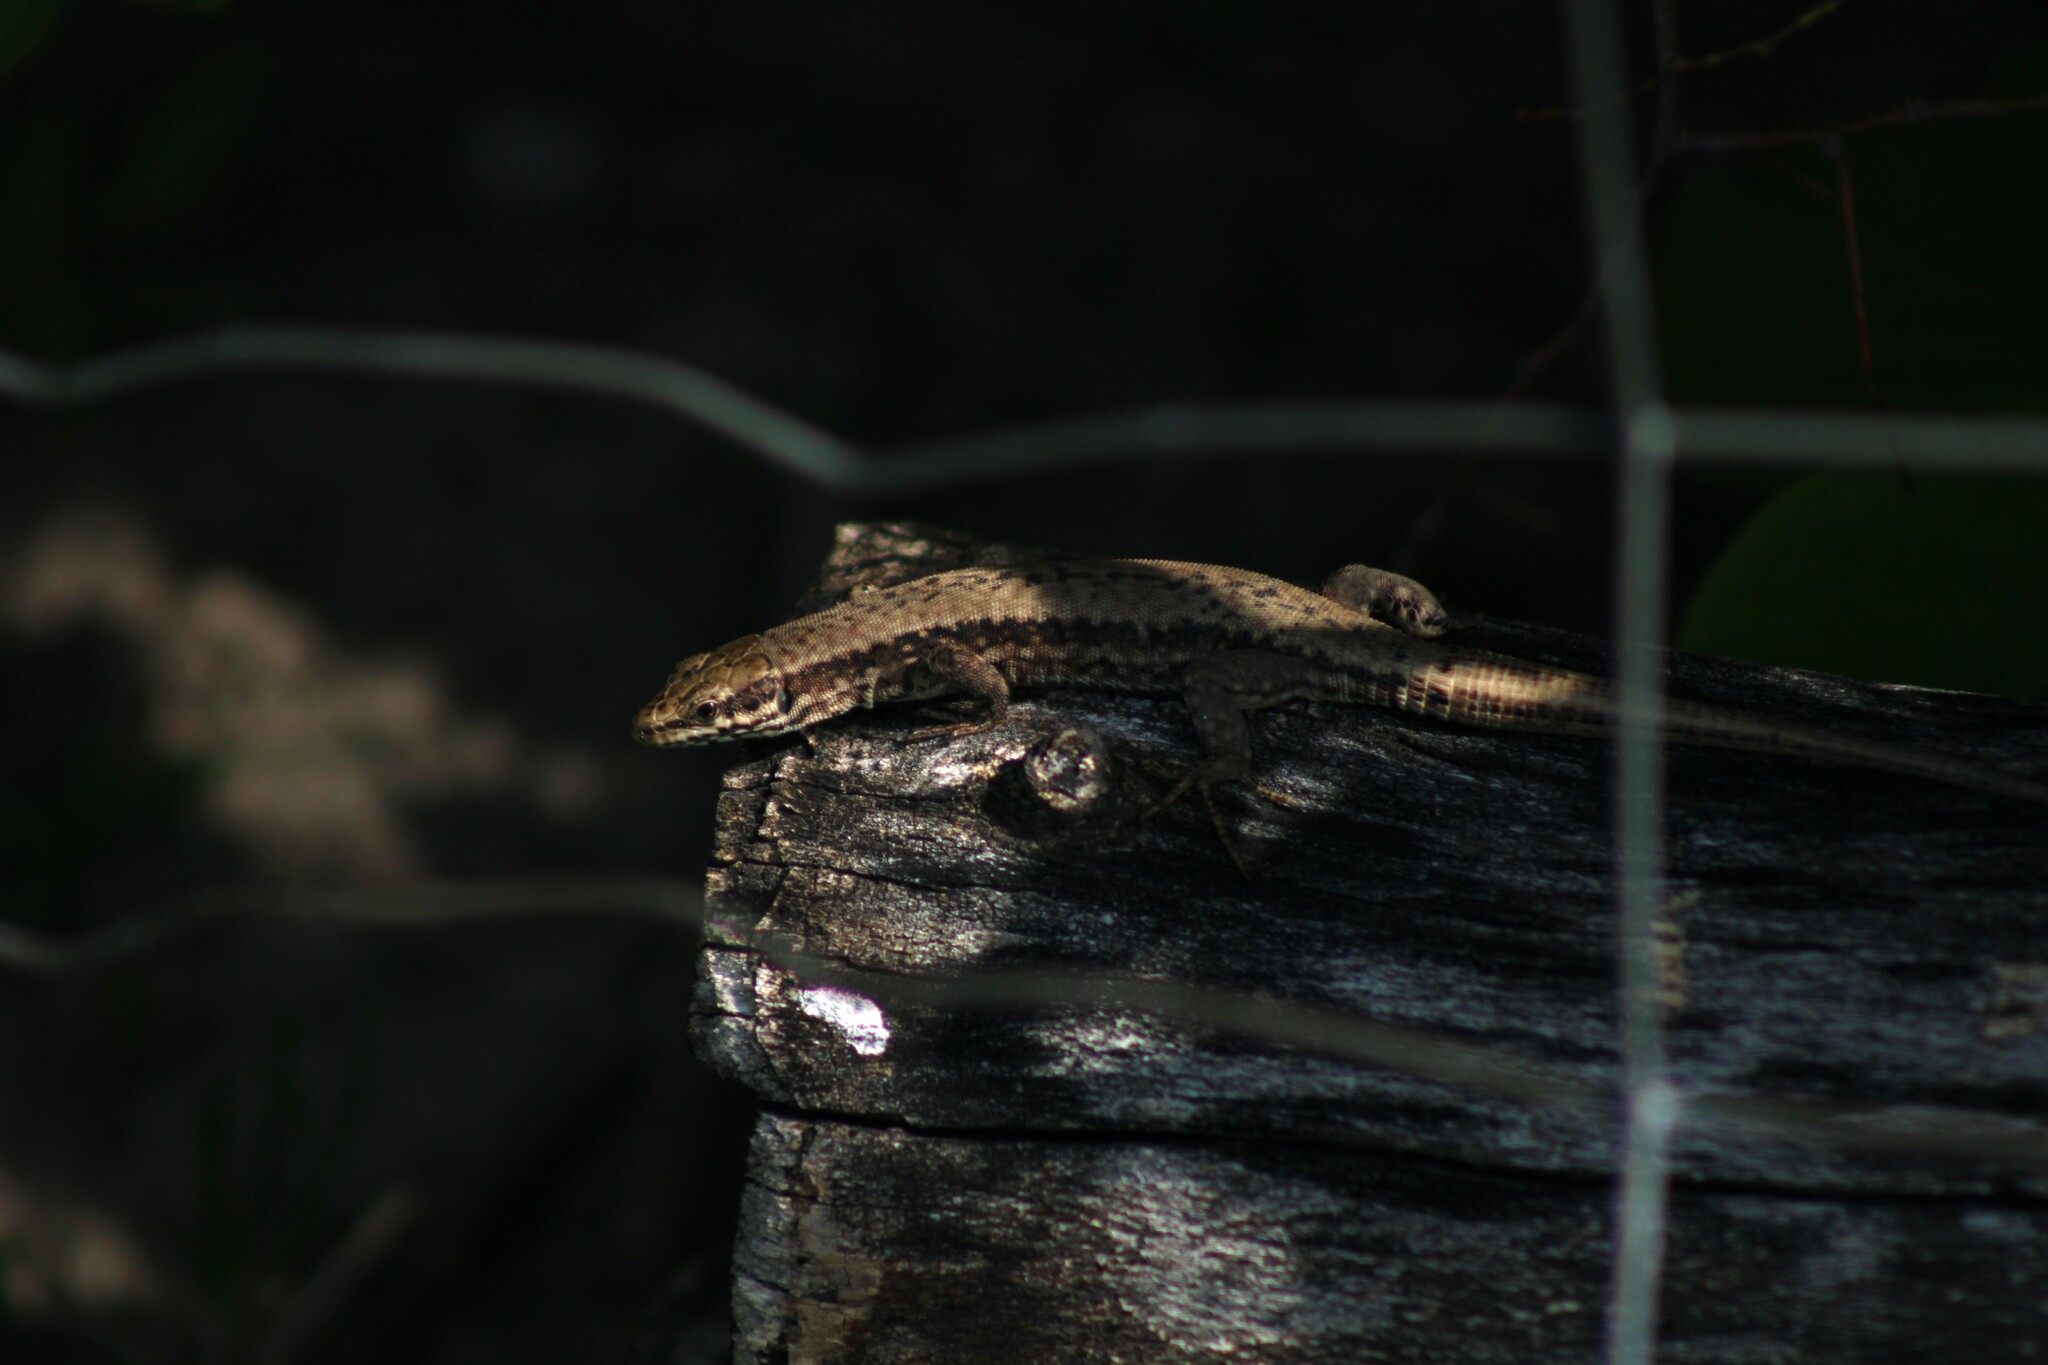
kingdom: Animalia
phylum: Chordata
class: Squamata
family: Lacertidae
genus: Podarcis
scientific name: Podarcis muralis
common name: Common wall lizard
